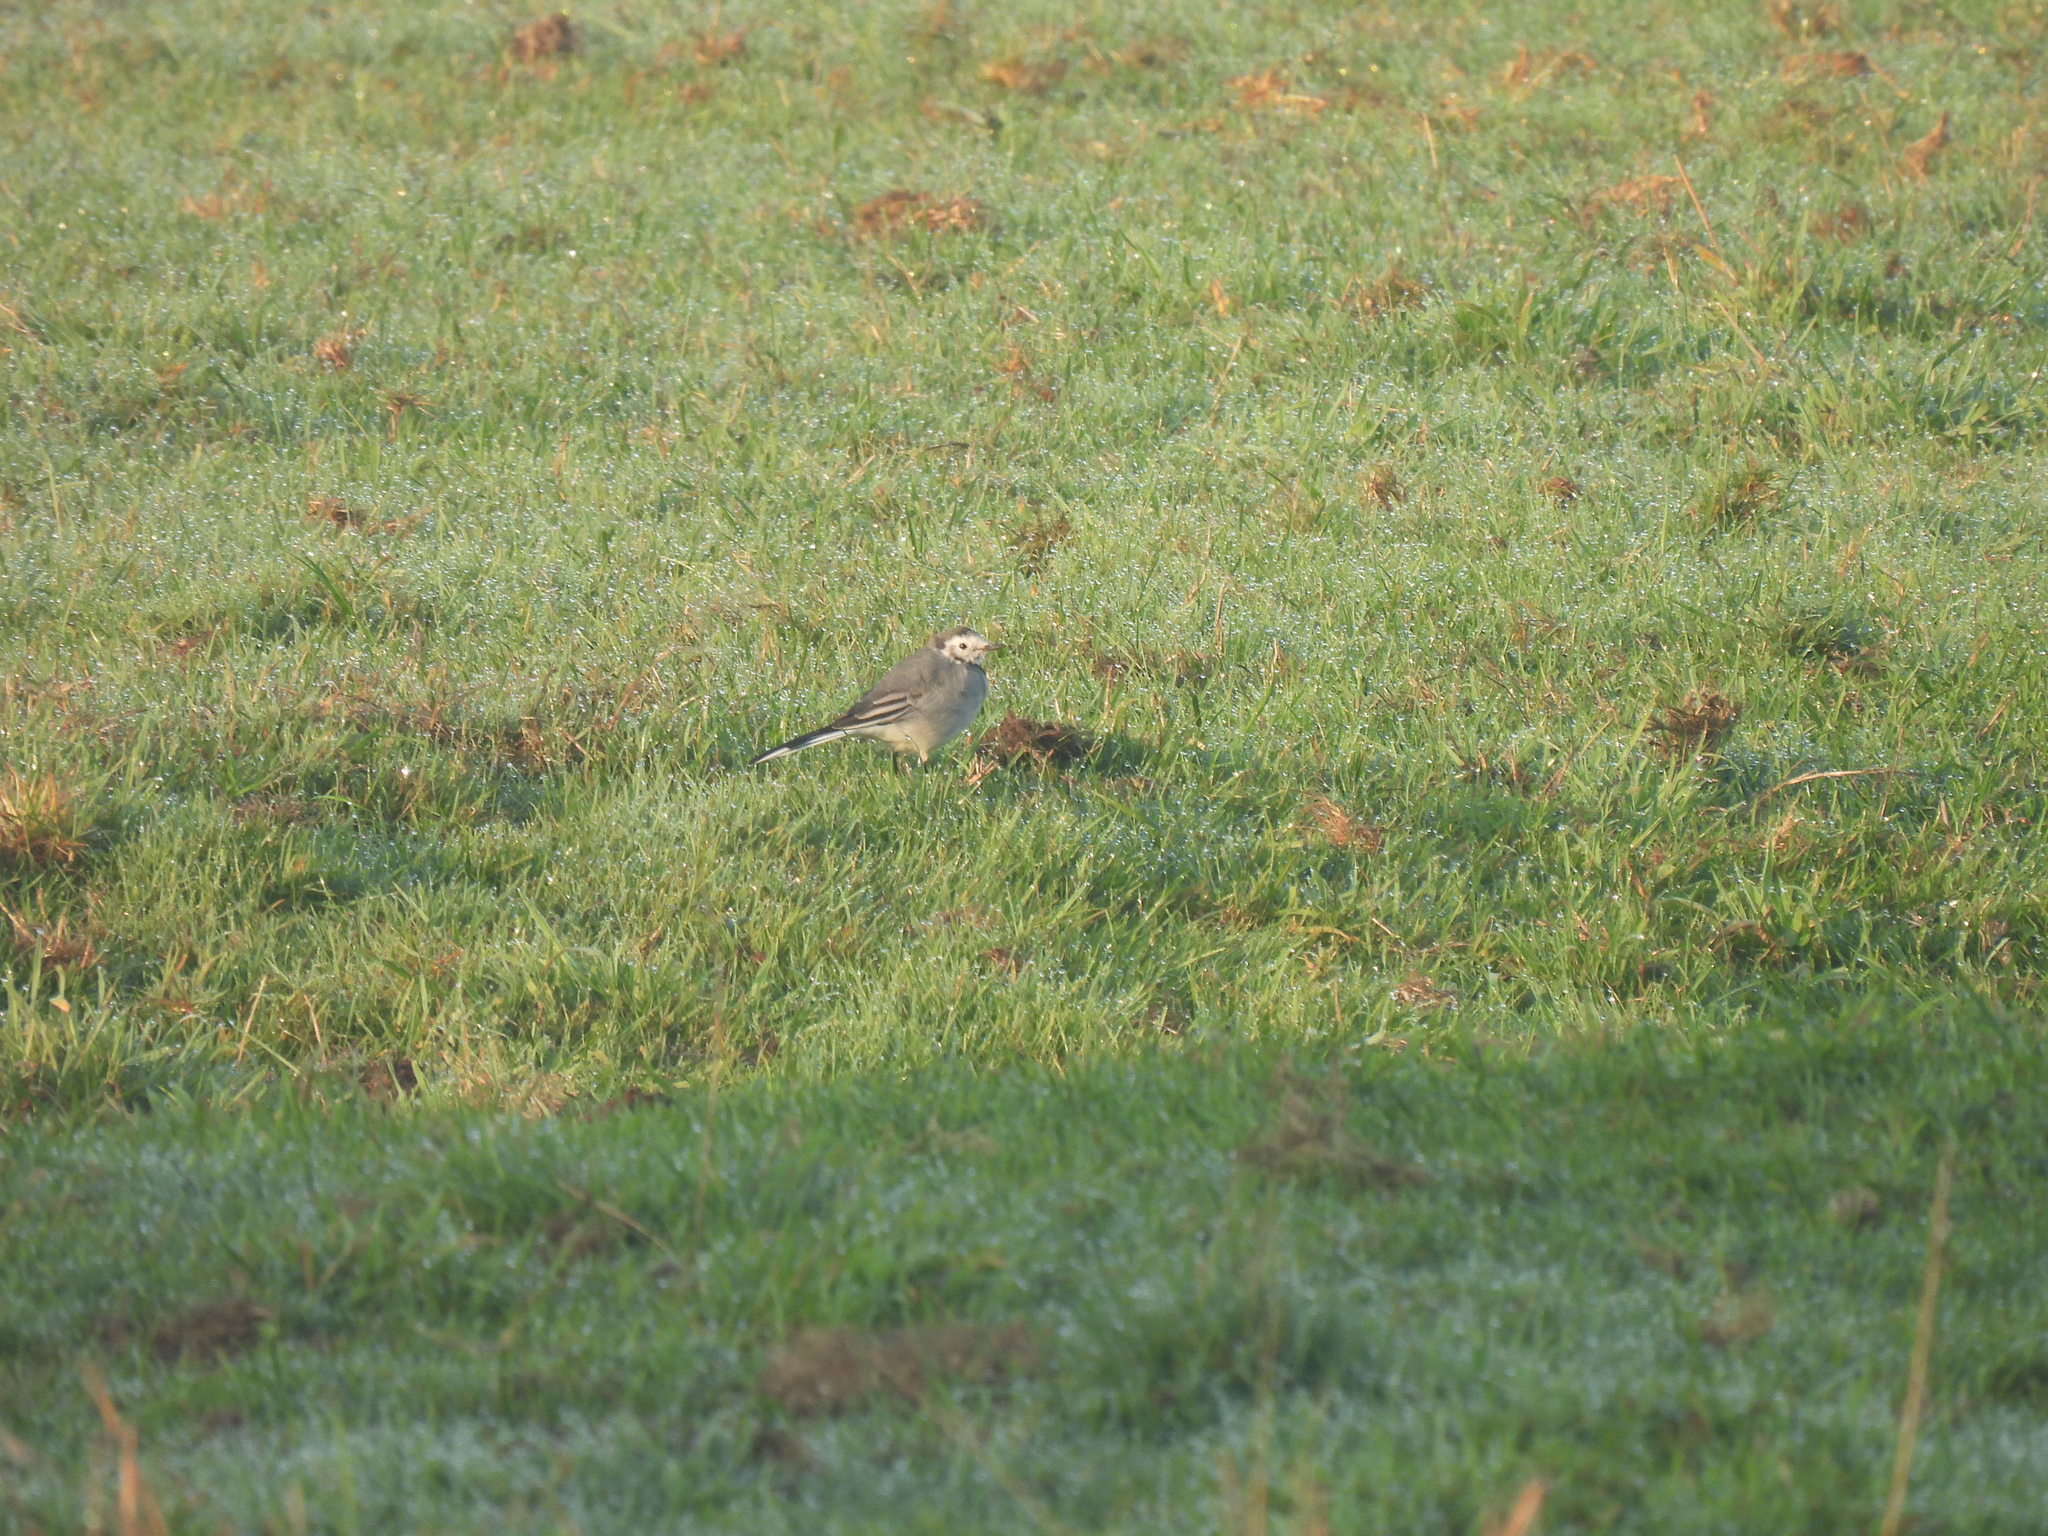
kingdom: Animalia
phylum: Chordata
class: Aves
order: Passeriformes
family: Motacillidae
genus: Motacilla
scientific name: Motacilla alba
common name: White wagtail
